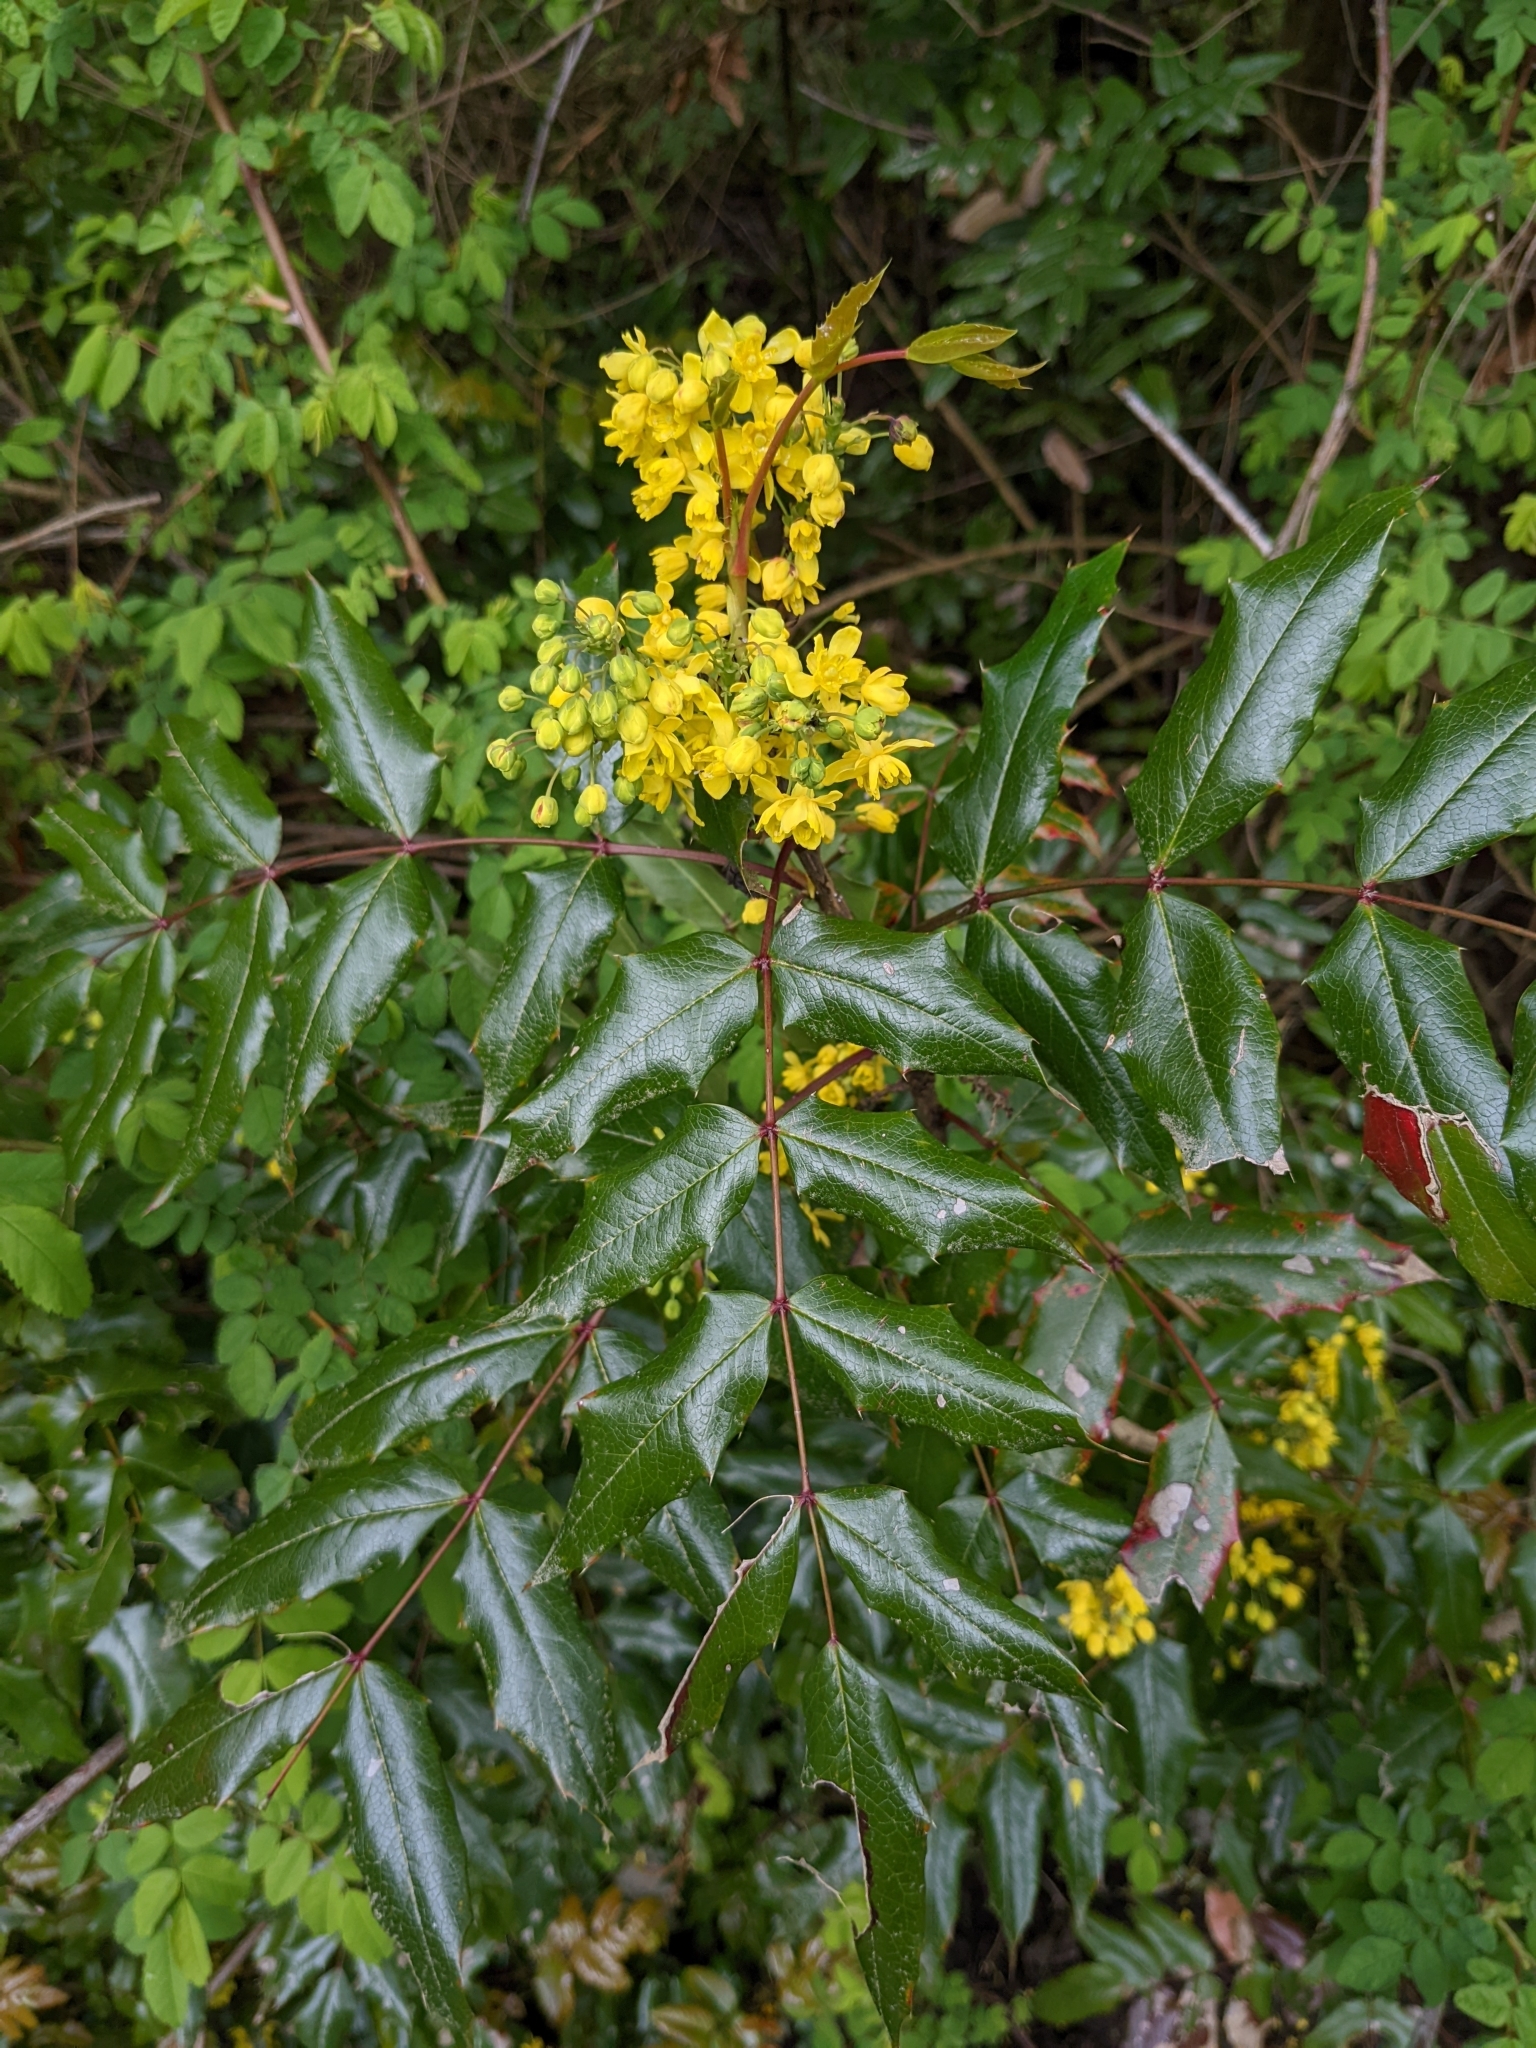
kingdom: Plantae
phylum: Tracheophyta
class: Magnoliopsida
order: Ranunculales
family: Berberidaceae
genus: Mahonia
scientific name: Mahonia aquifolium
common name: Oregon-grape
